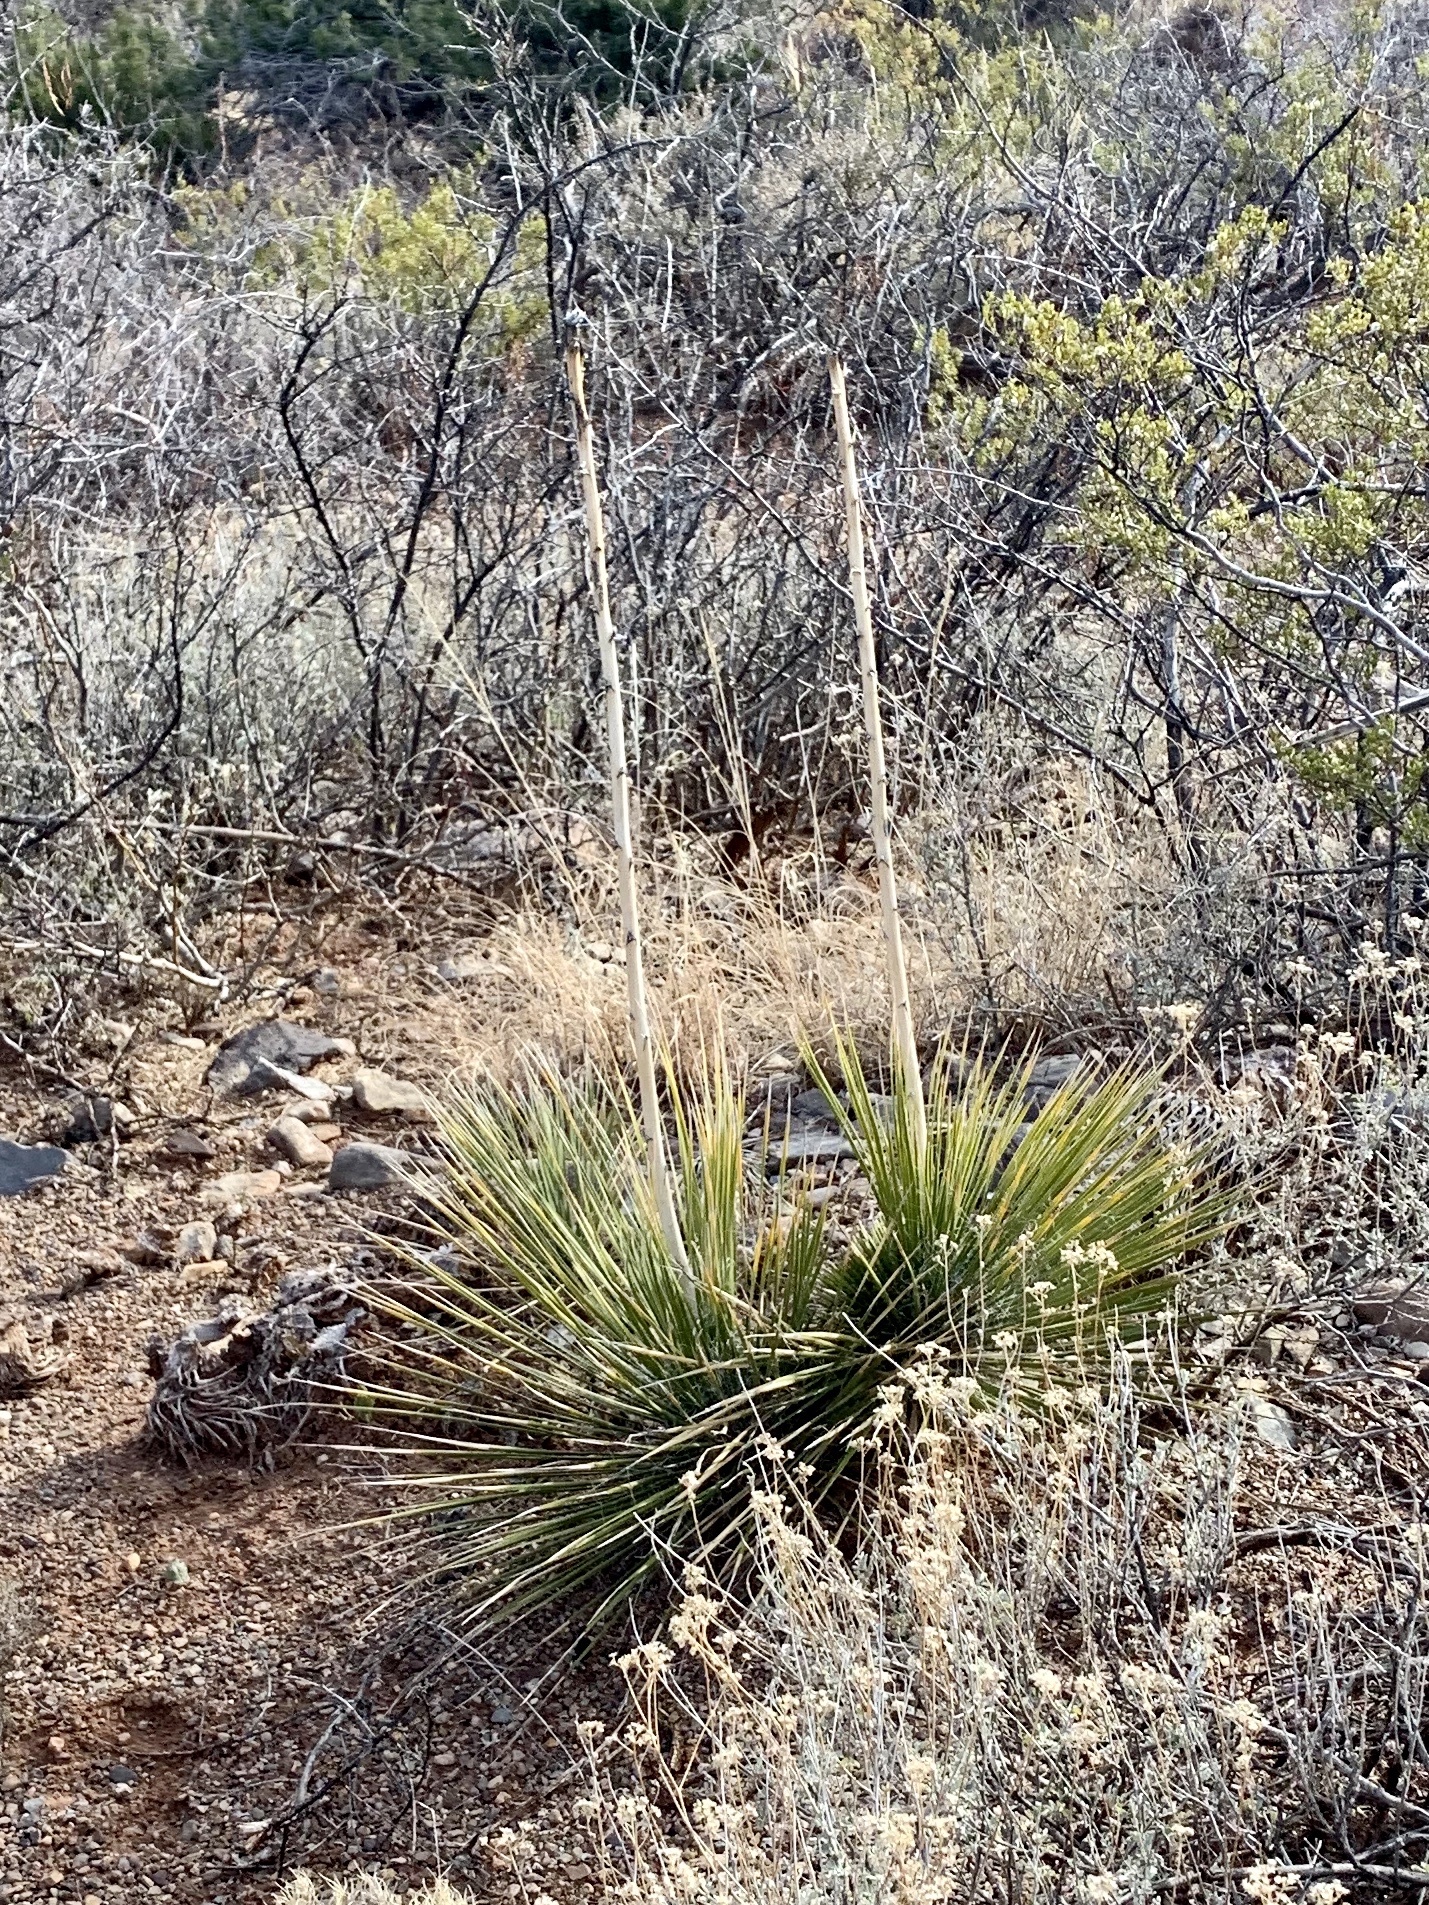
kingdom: Plantae
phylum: Tracheophyta
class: Liliopsida
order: Asparagales
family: Asparagaceae
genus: Yucca
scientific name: Yucca elata
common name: Palmella
